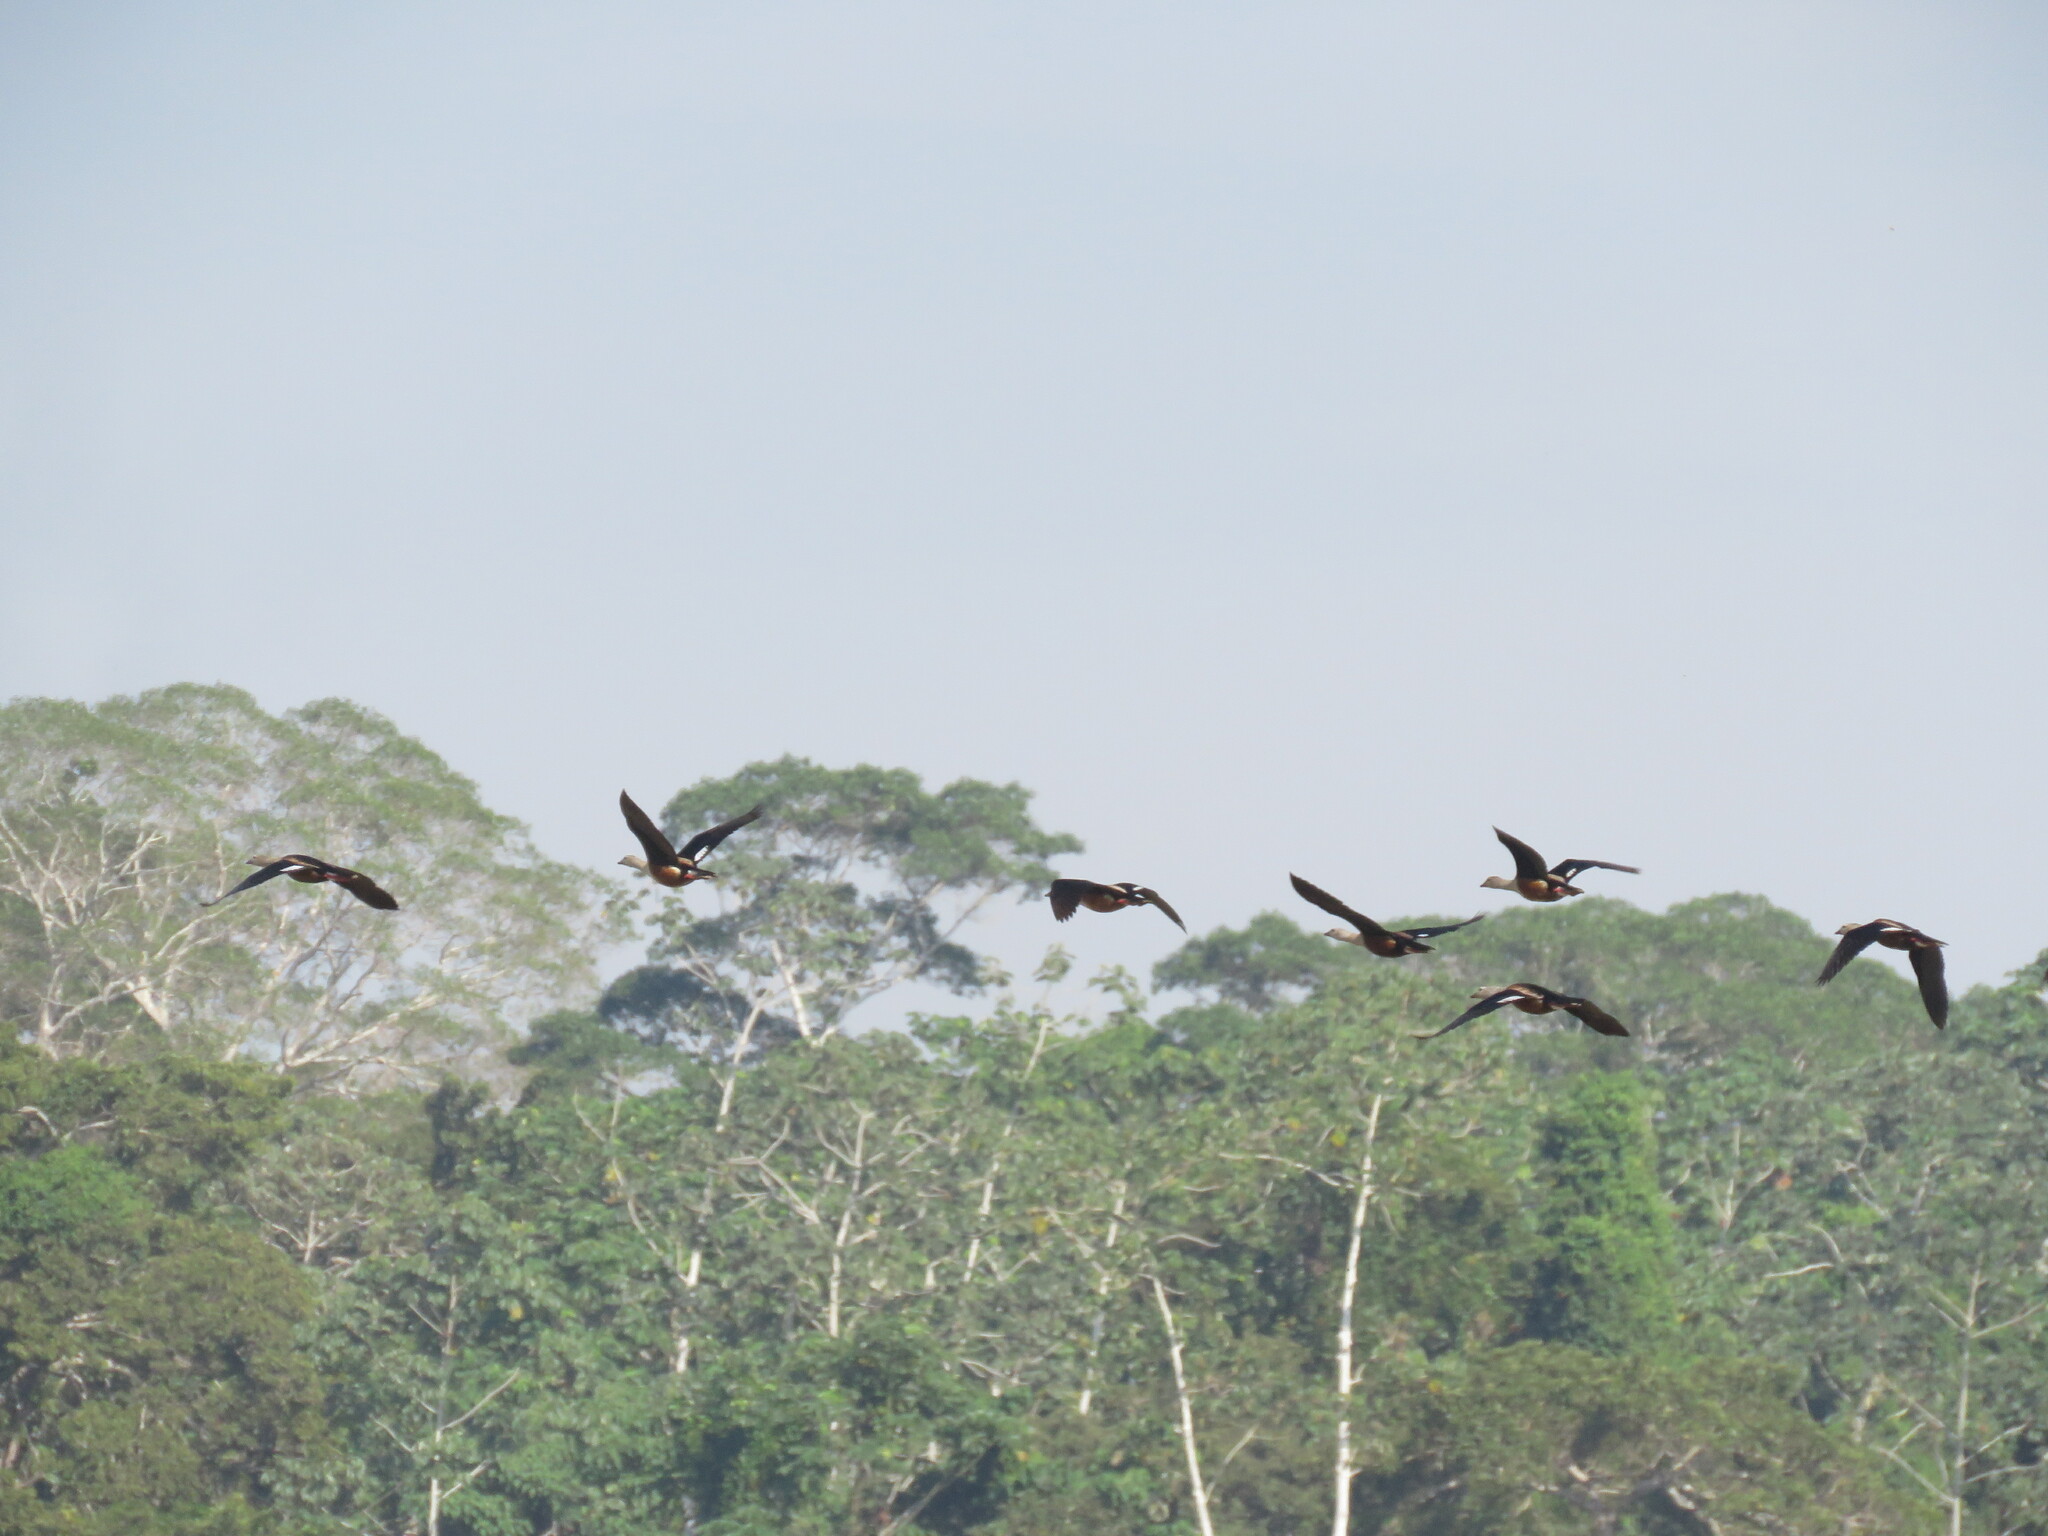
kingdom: Animalia
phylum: Chordata
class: Aves
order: Anseriformes
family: Anatidae
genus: Oressochen
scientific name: Oressochen jubatus
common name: Orinoco goose
